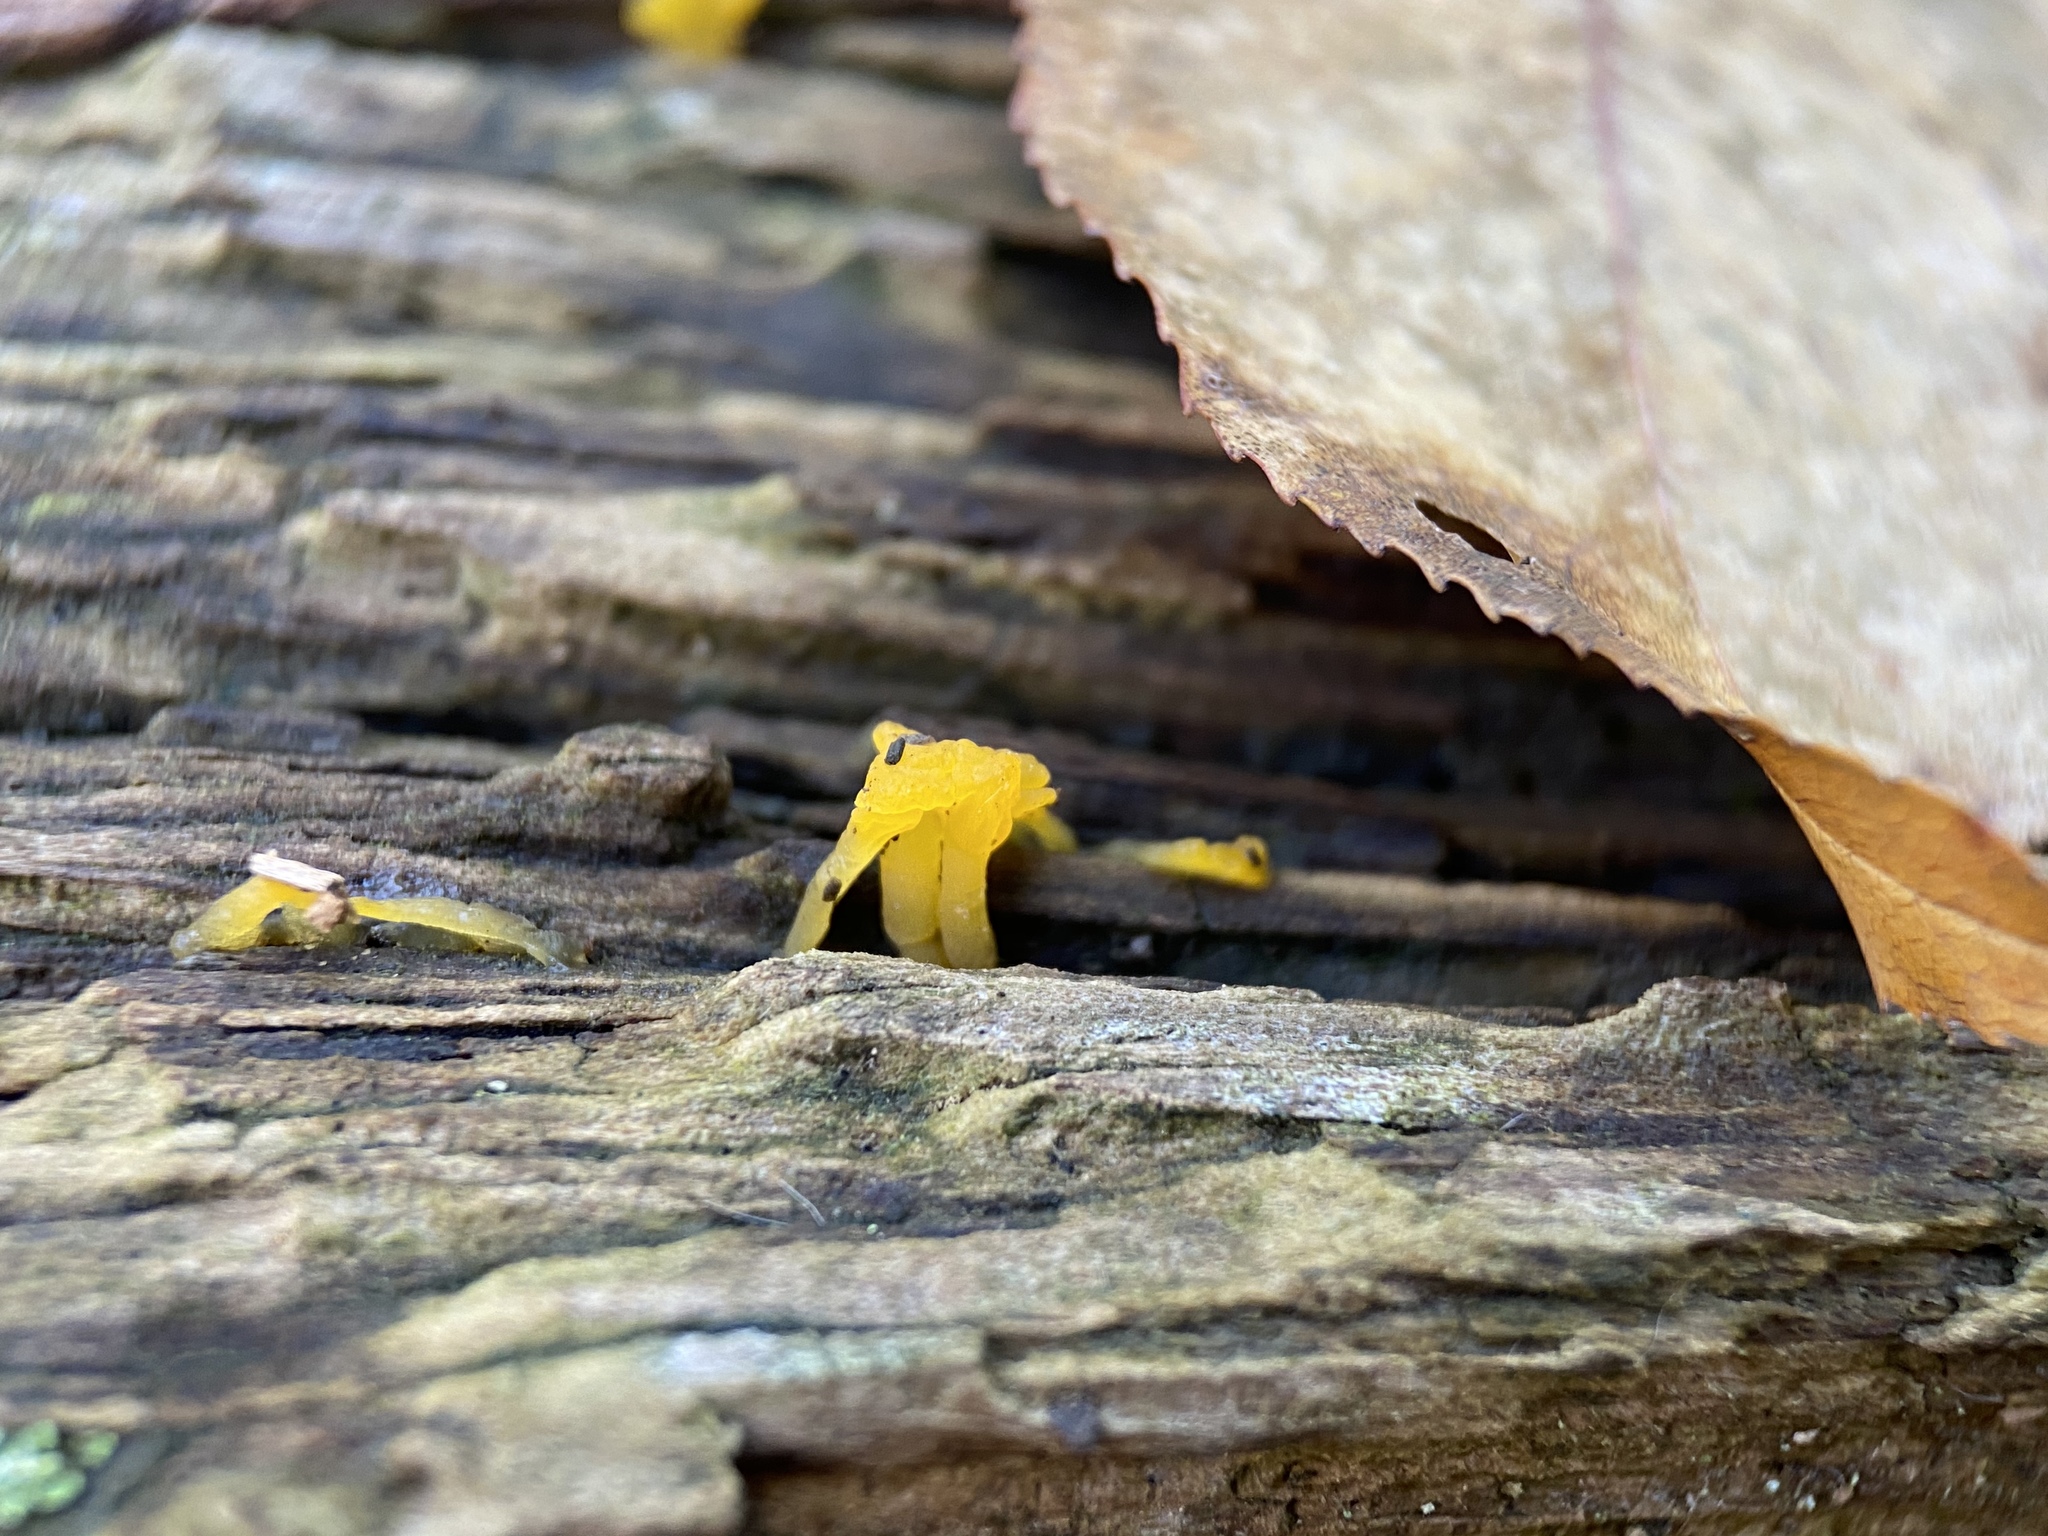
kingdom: Fungi
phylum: Basidiomycota
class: Dacrymycetes
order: Dacrymycetales
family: Dacrymycetaceae
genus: Dacrymyces
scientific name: Dacrymyces spathularius
